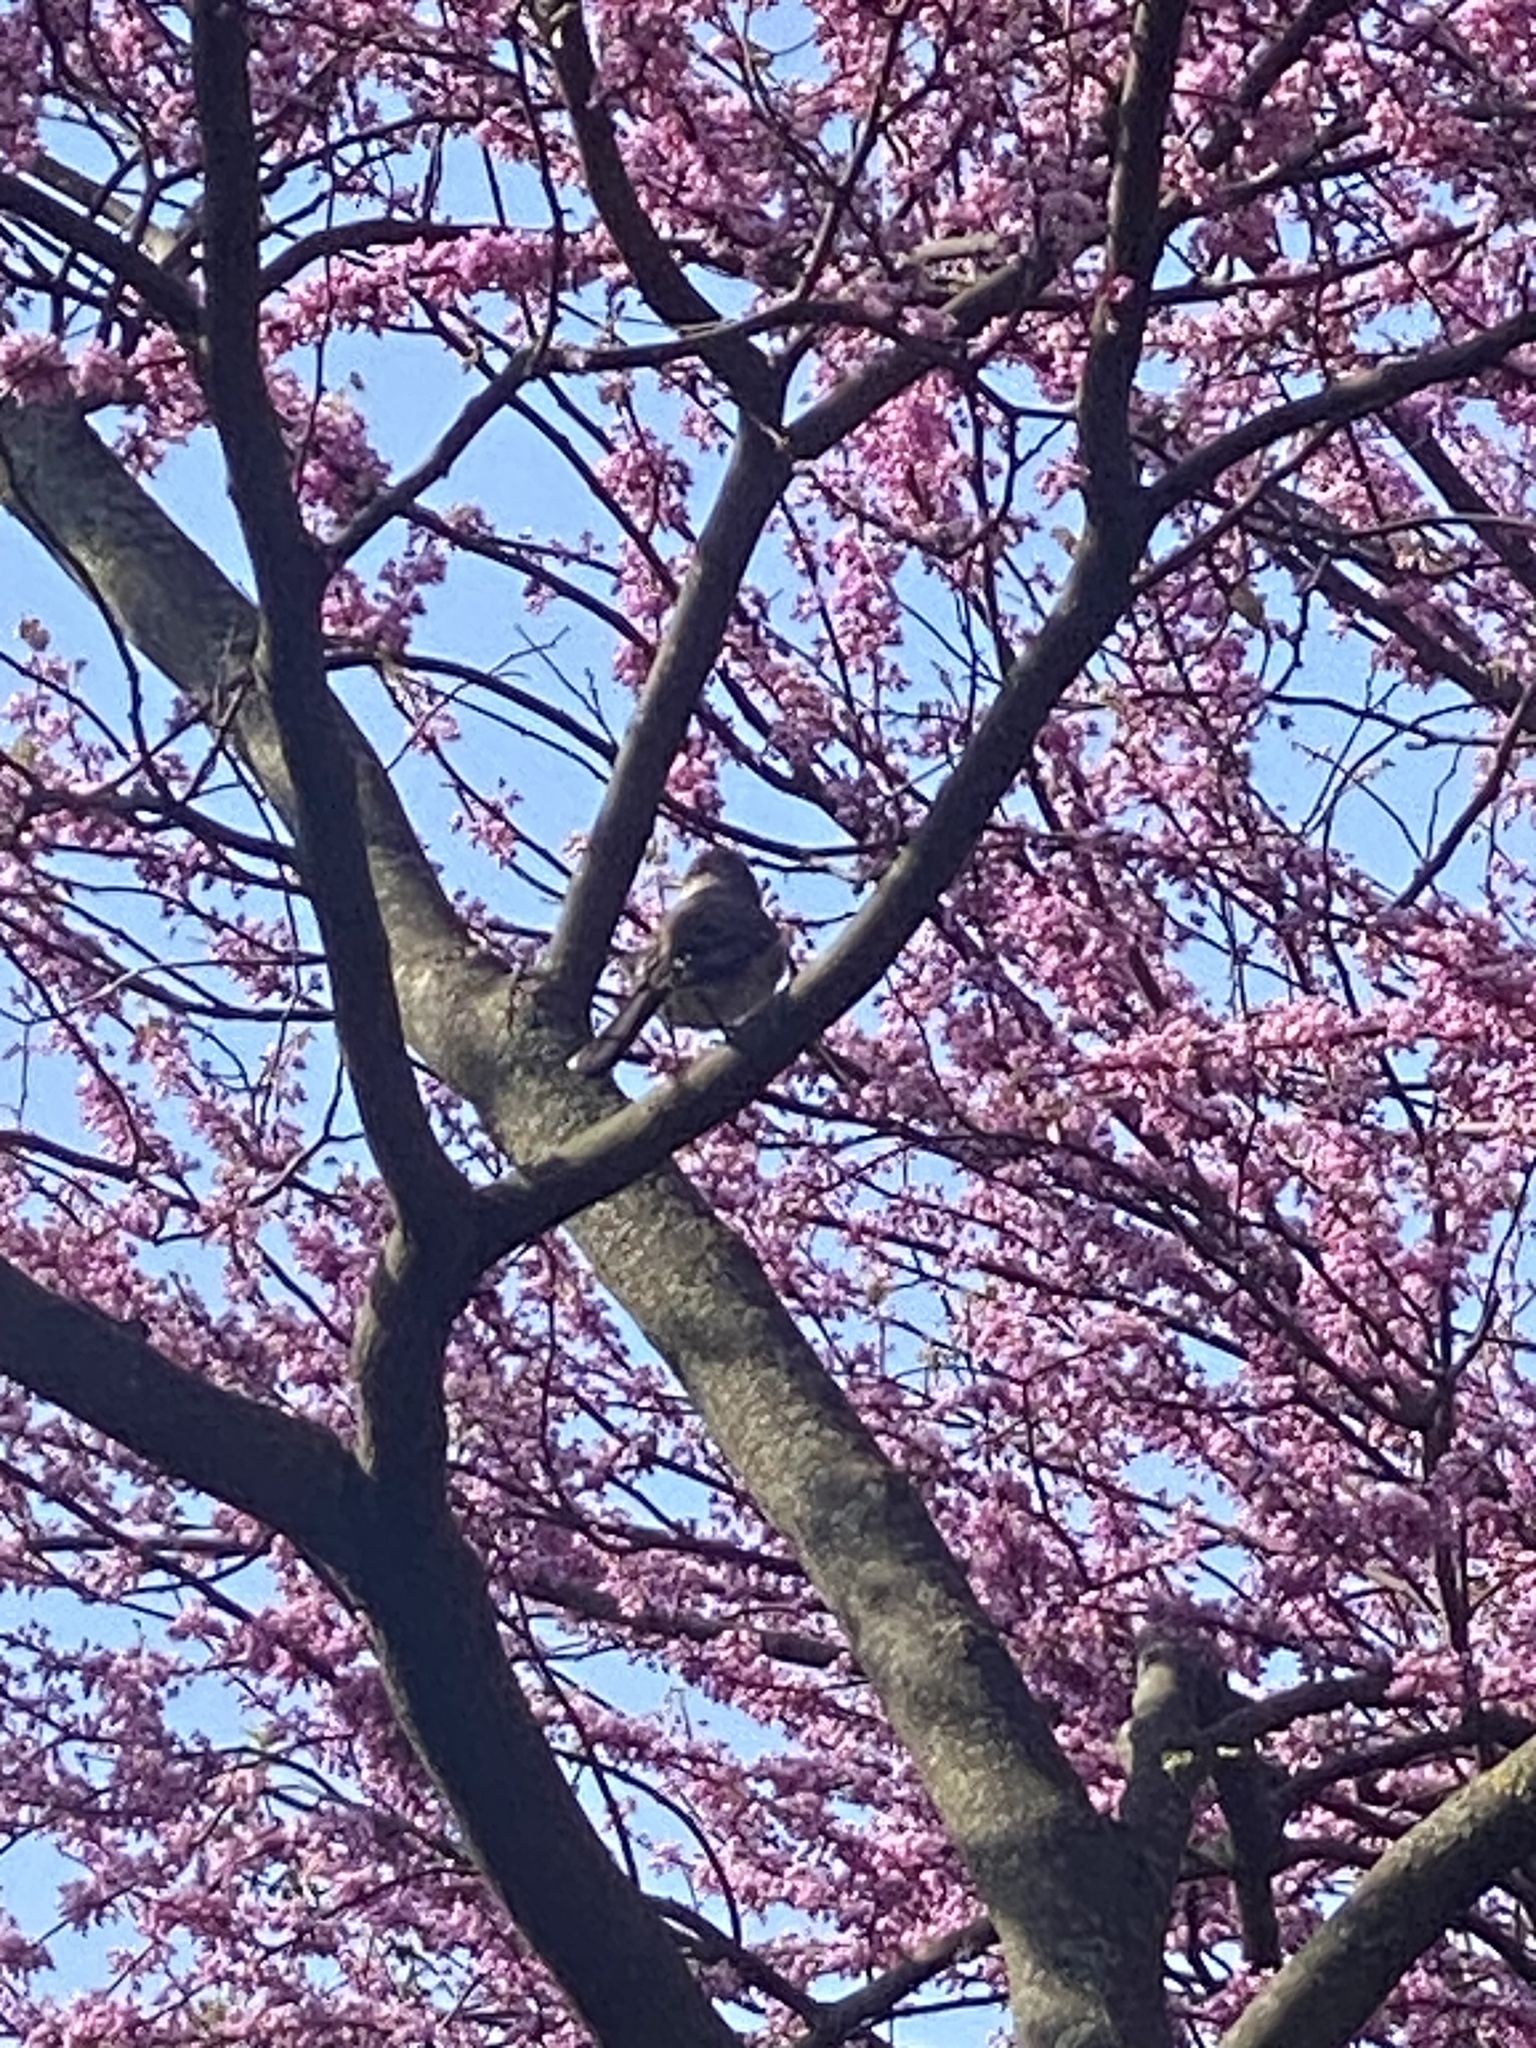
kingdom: Animalia
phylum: Chordata
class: Aves
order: Passeriformes
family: Mimidae
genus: Mimus
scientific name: Mimus polyglottos
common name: Northern mockingbird
